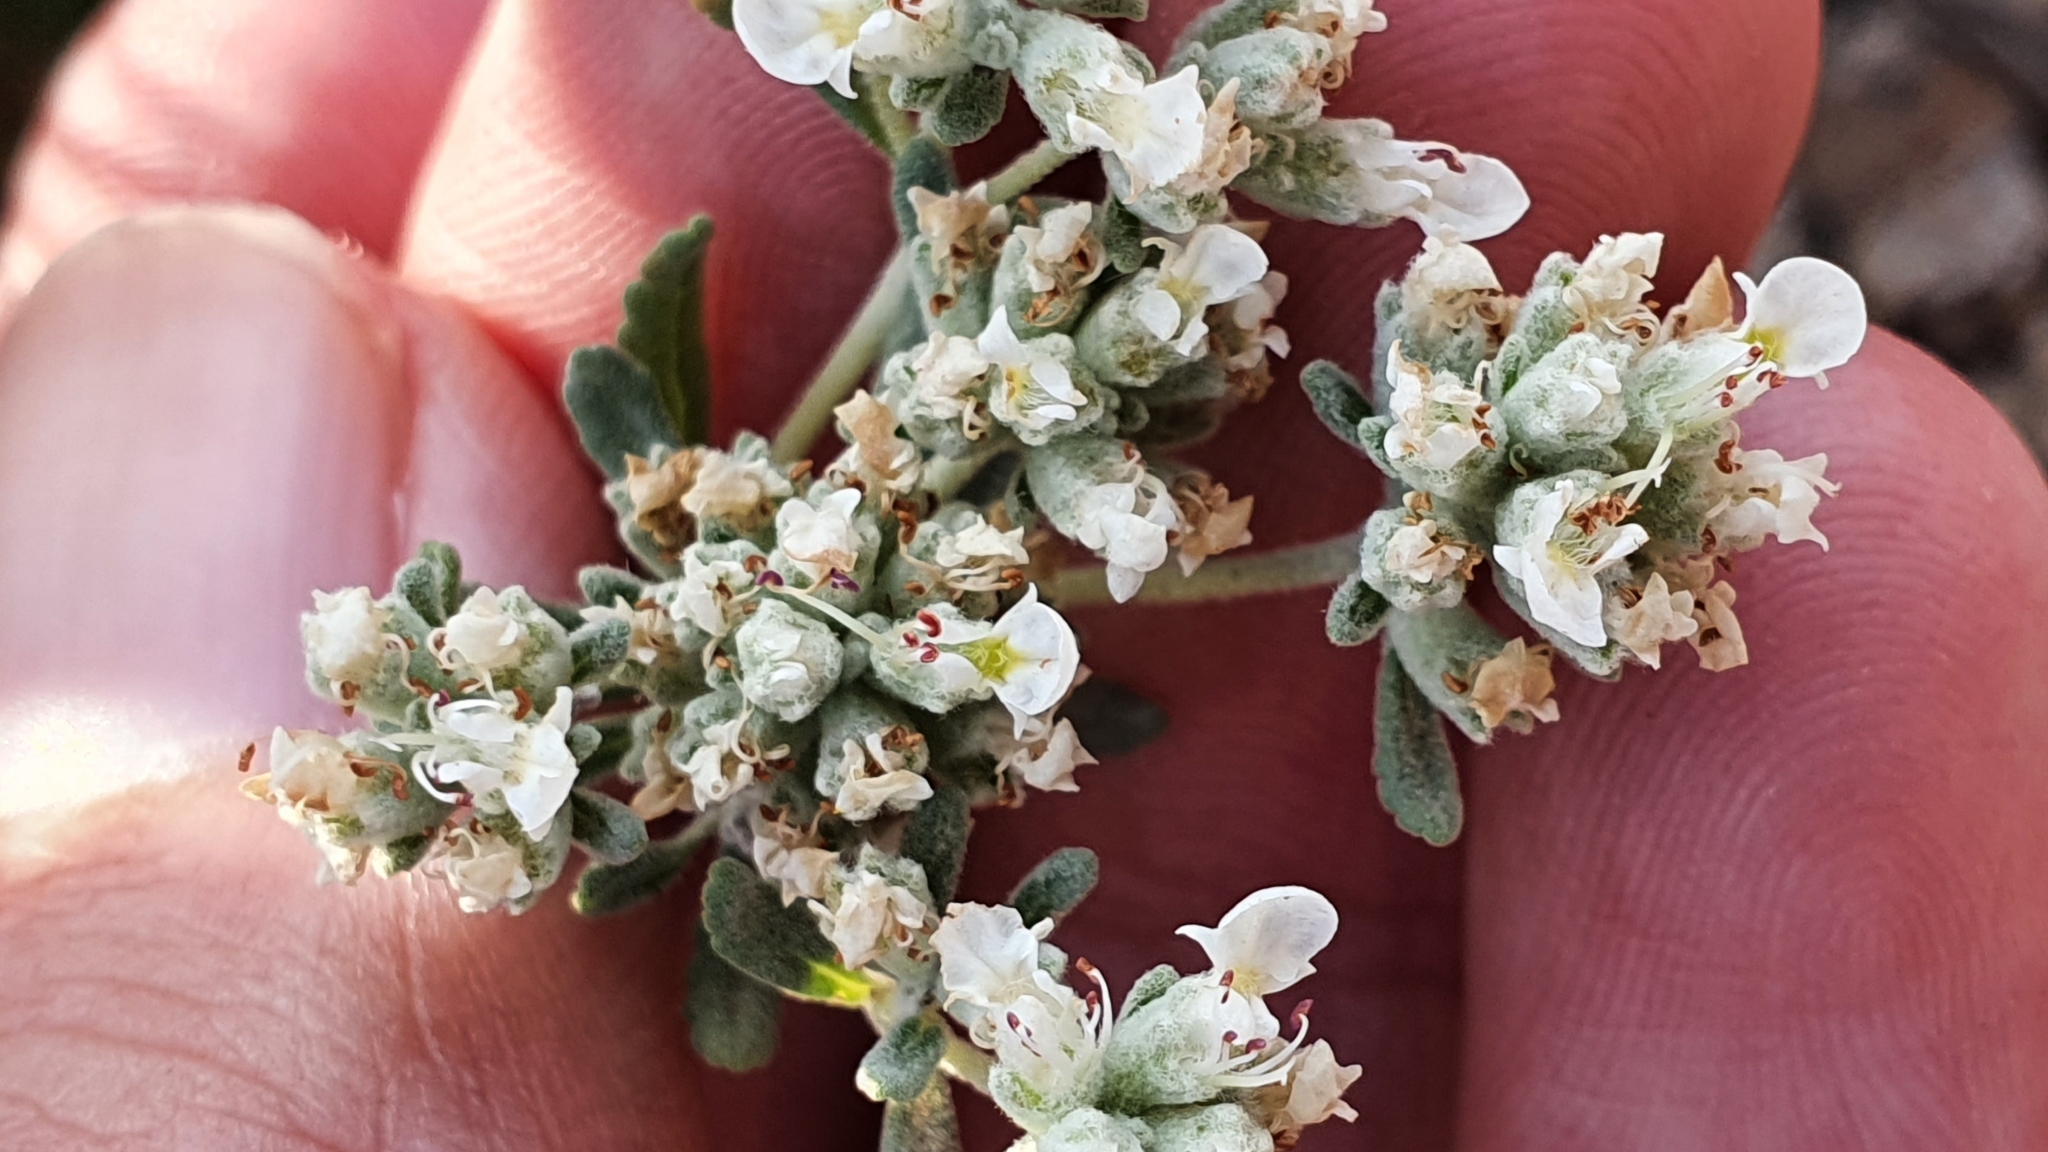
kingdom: Plantae
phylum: Tracheophyta
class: Magnoliopsida
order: Lamiales
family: Lamiaceae
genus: Teucrium
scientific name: Teucrium capitatum
